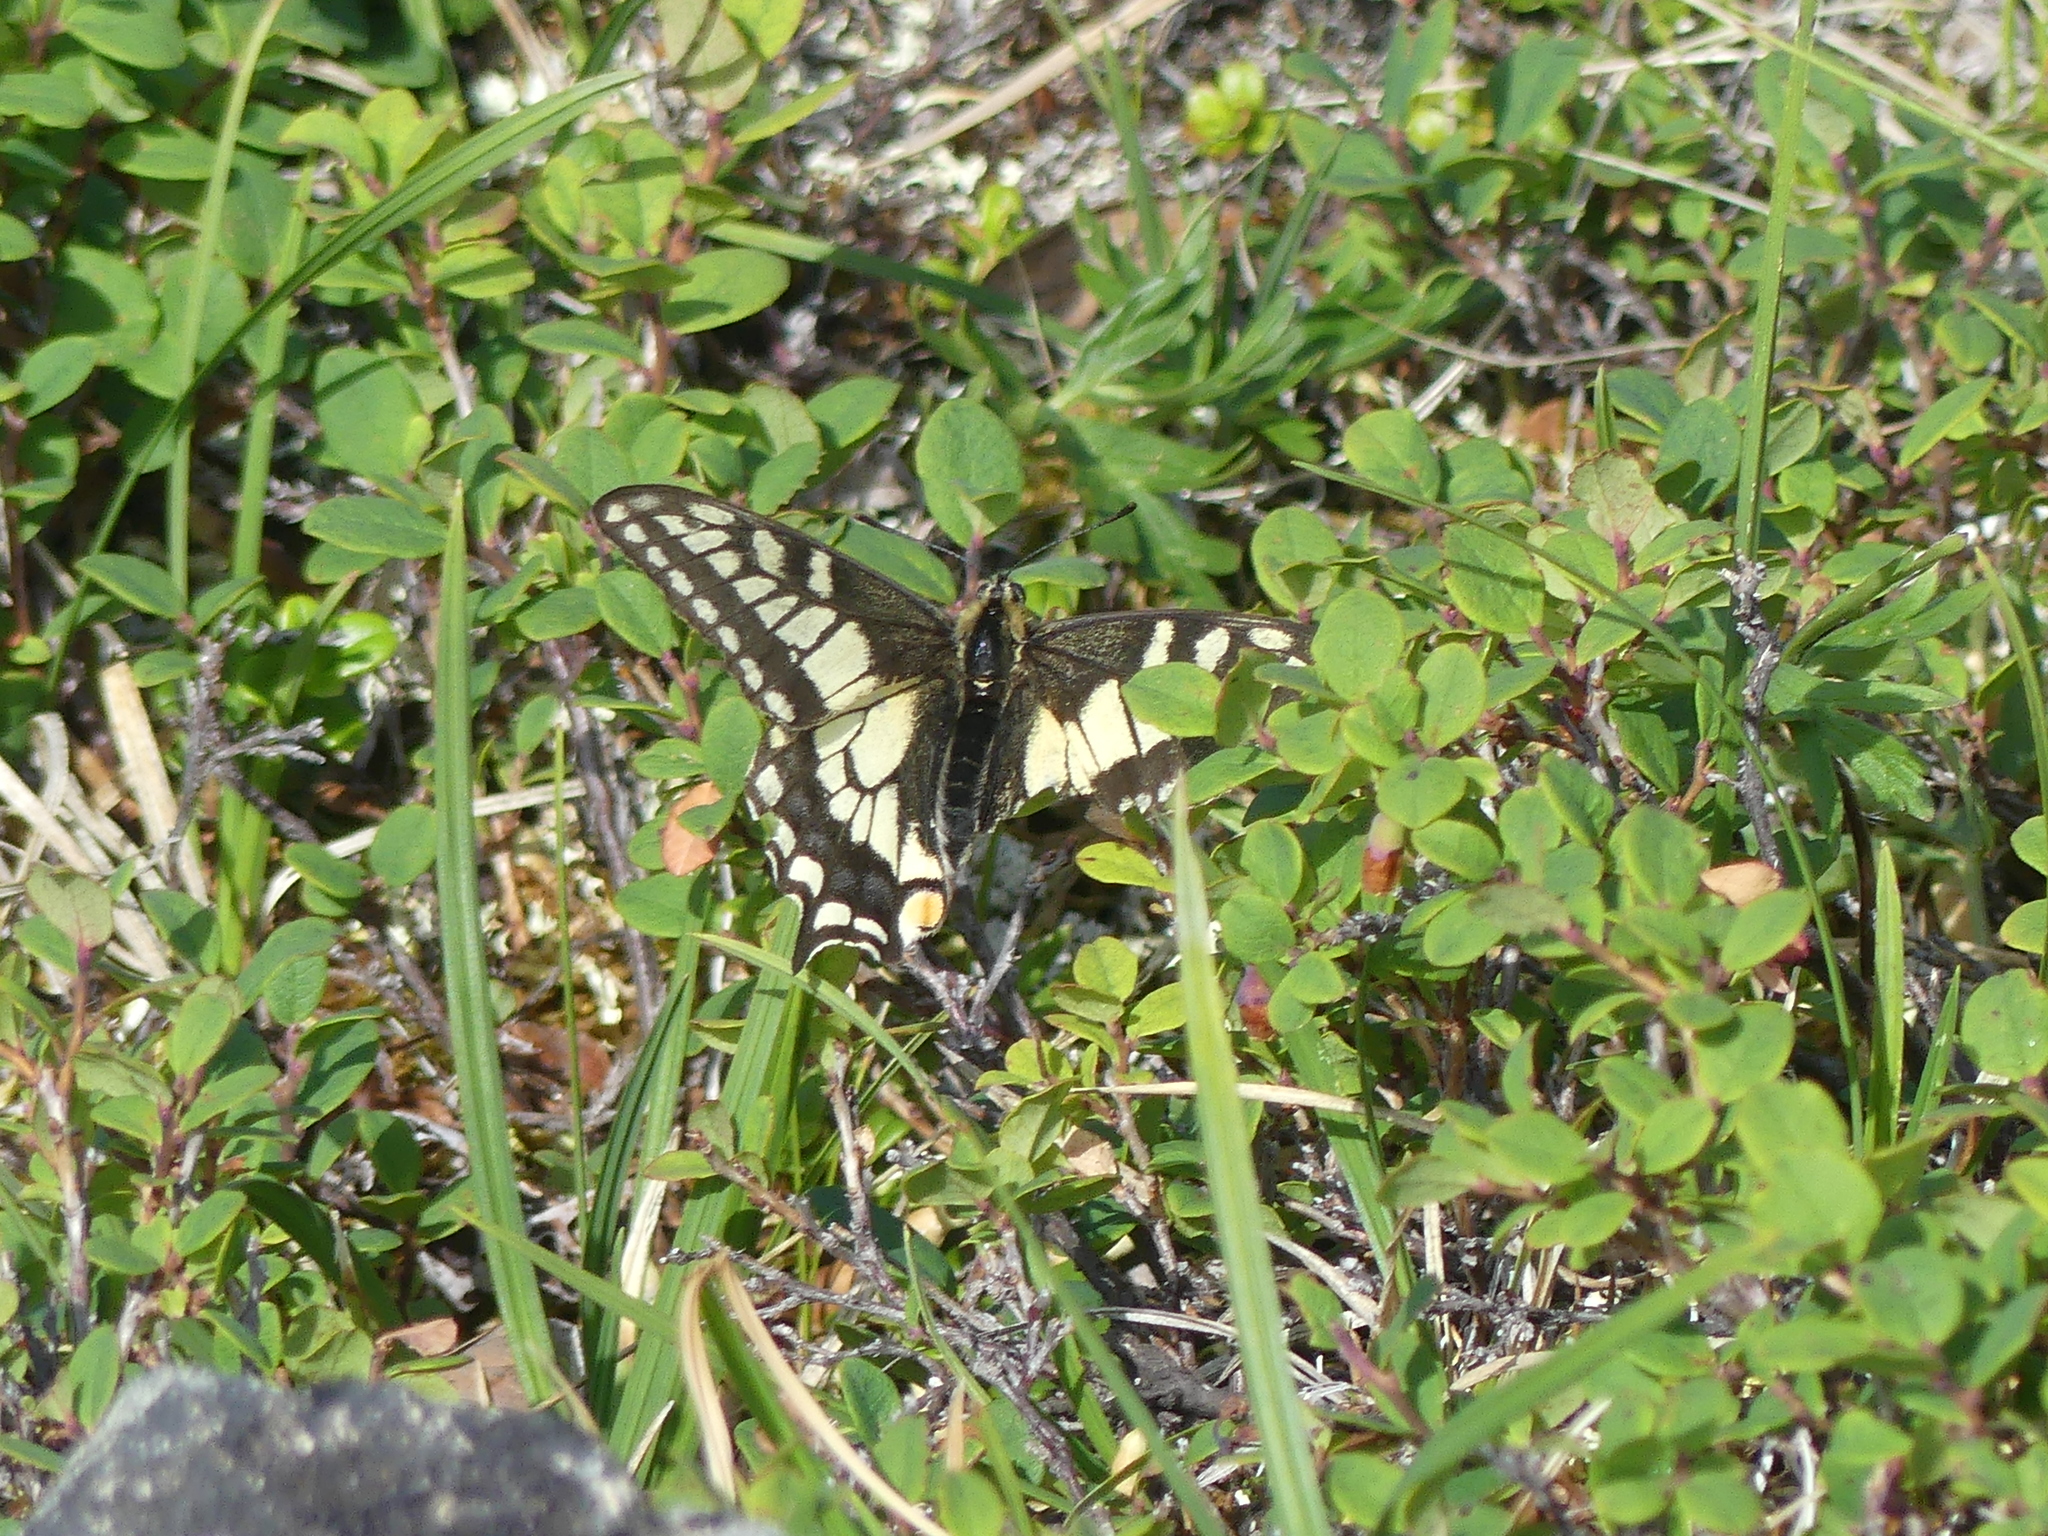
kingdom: Animalia
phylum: Arthropoda
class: Insecta
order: Lepidoptera
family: Papilionidae
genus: Papilio
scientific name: Papilio machaon
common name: Swallowtail
